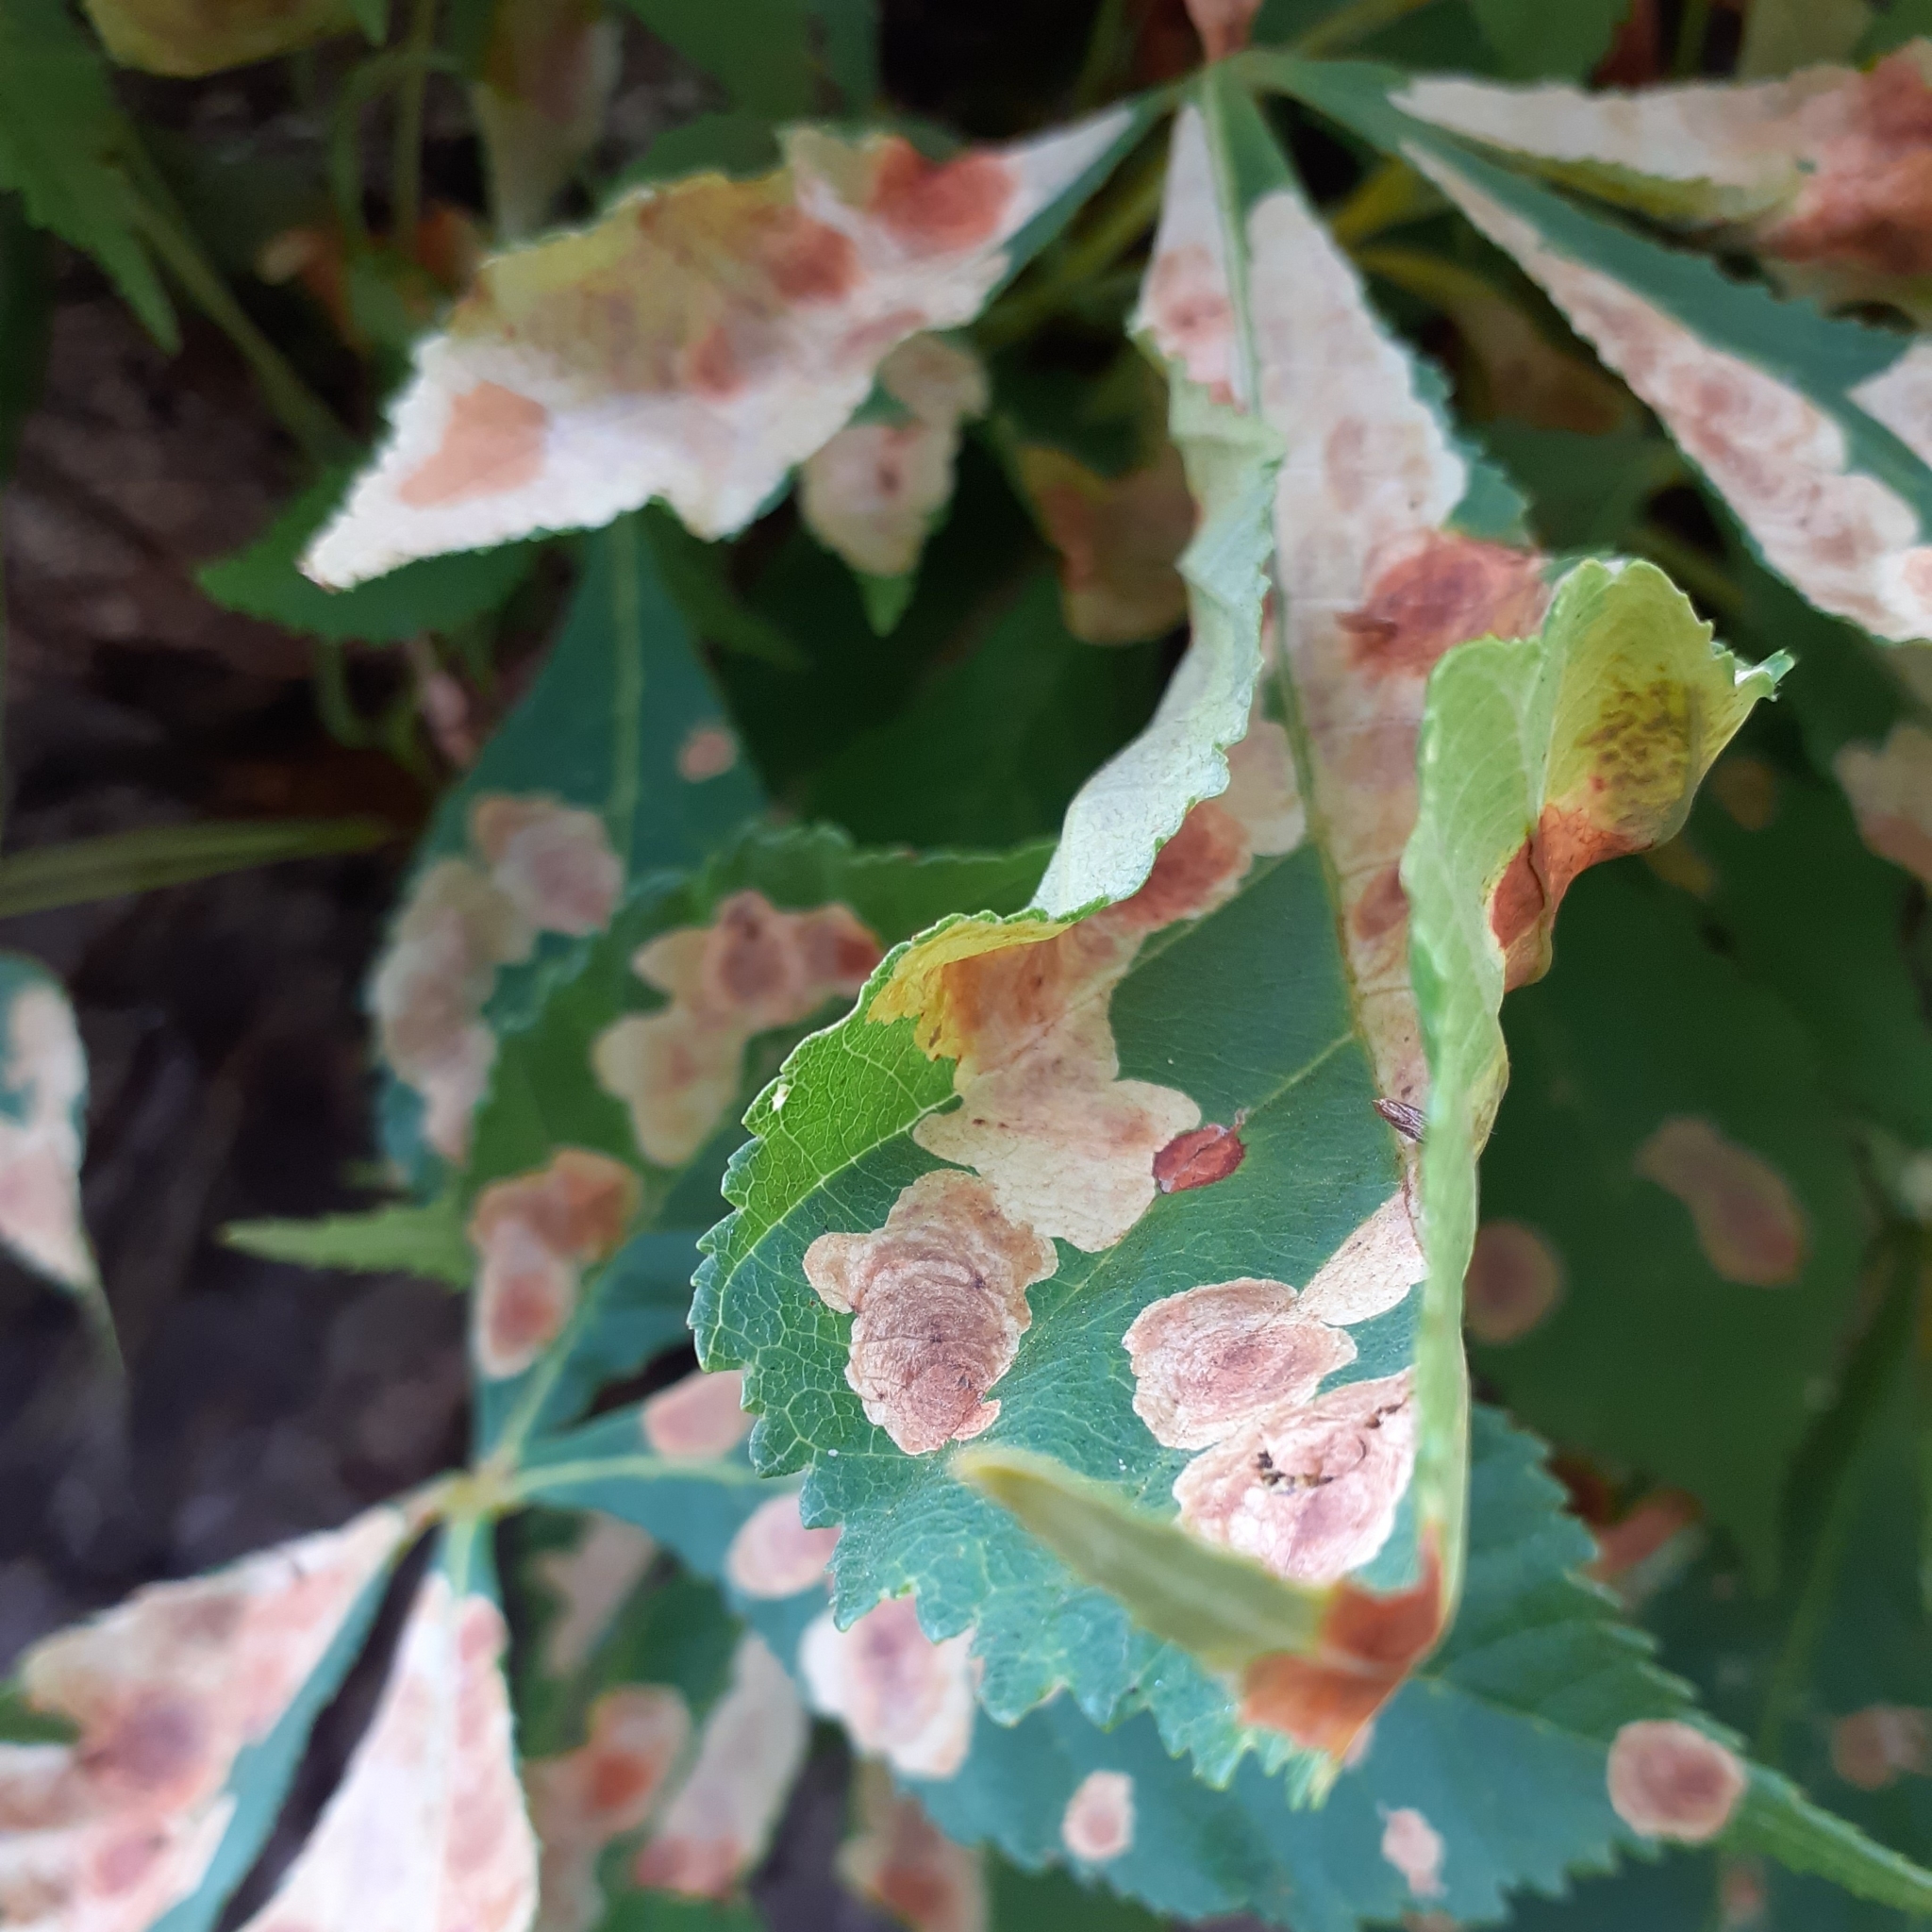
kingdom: Animalia
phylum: Arthropoda
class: Insecta
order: Lepidoptera
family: Gracillariidae
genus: Cameraria
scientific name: Cameraria ohridella
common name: Horse-chestnut leaf-miner
